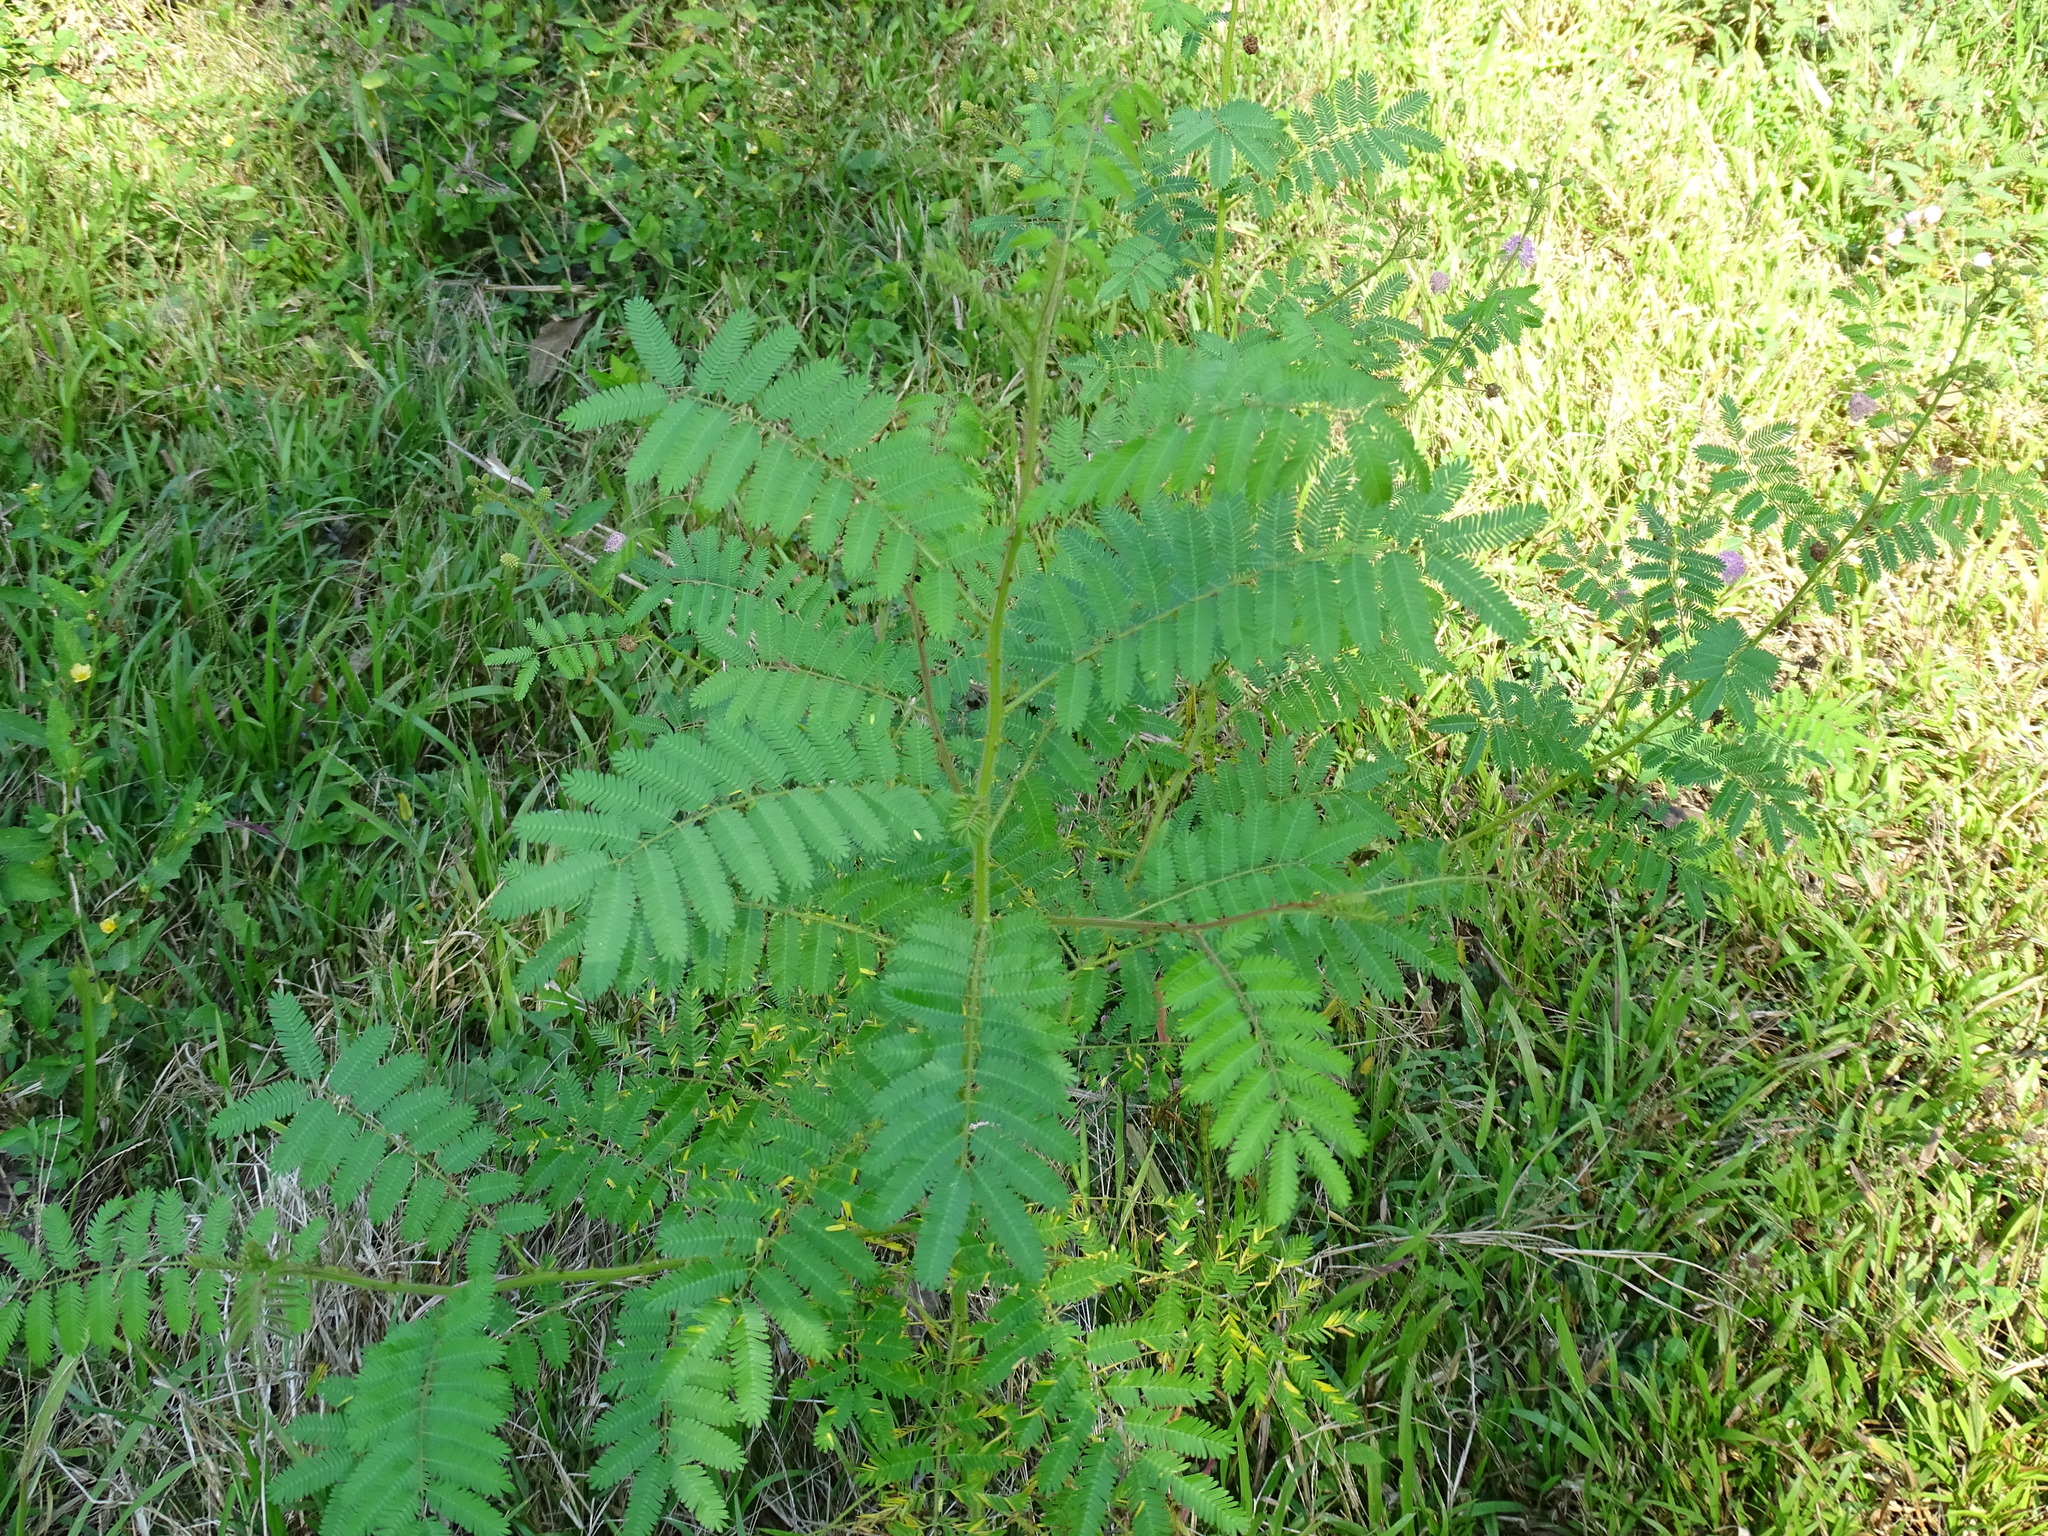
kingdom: Plantae
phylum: Tracheophyta
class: Magnoliopsida
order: Fabales
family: Fabaceae
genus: Mimosa
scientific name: Mimosa pigra
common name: Black mimosa
